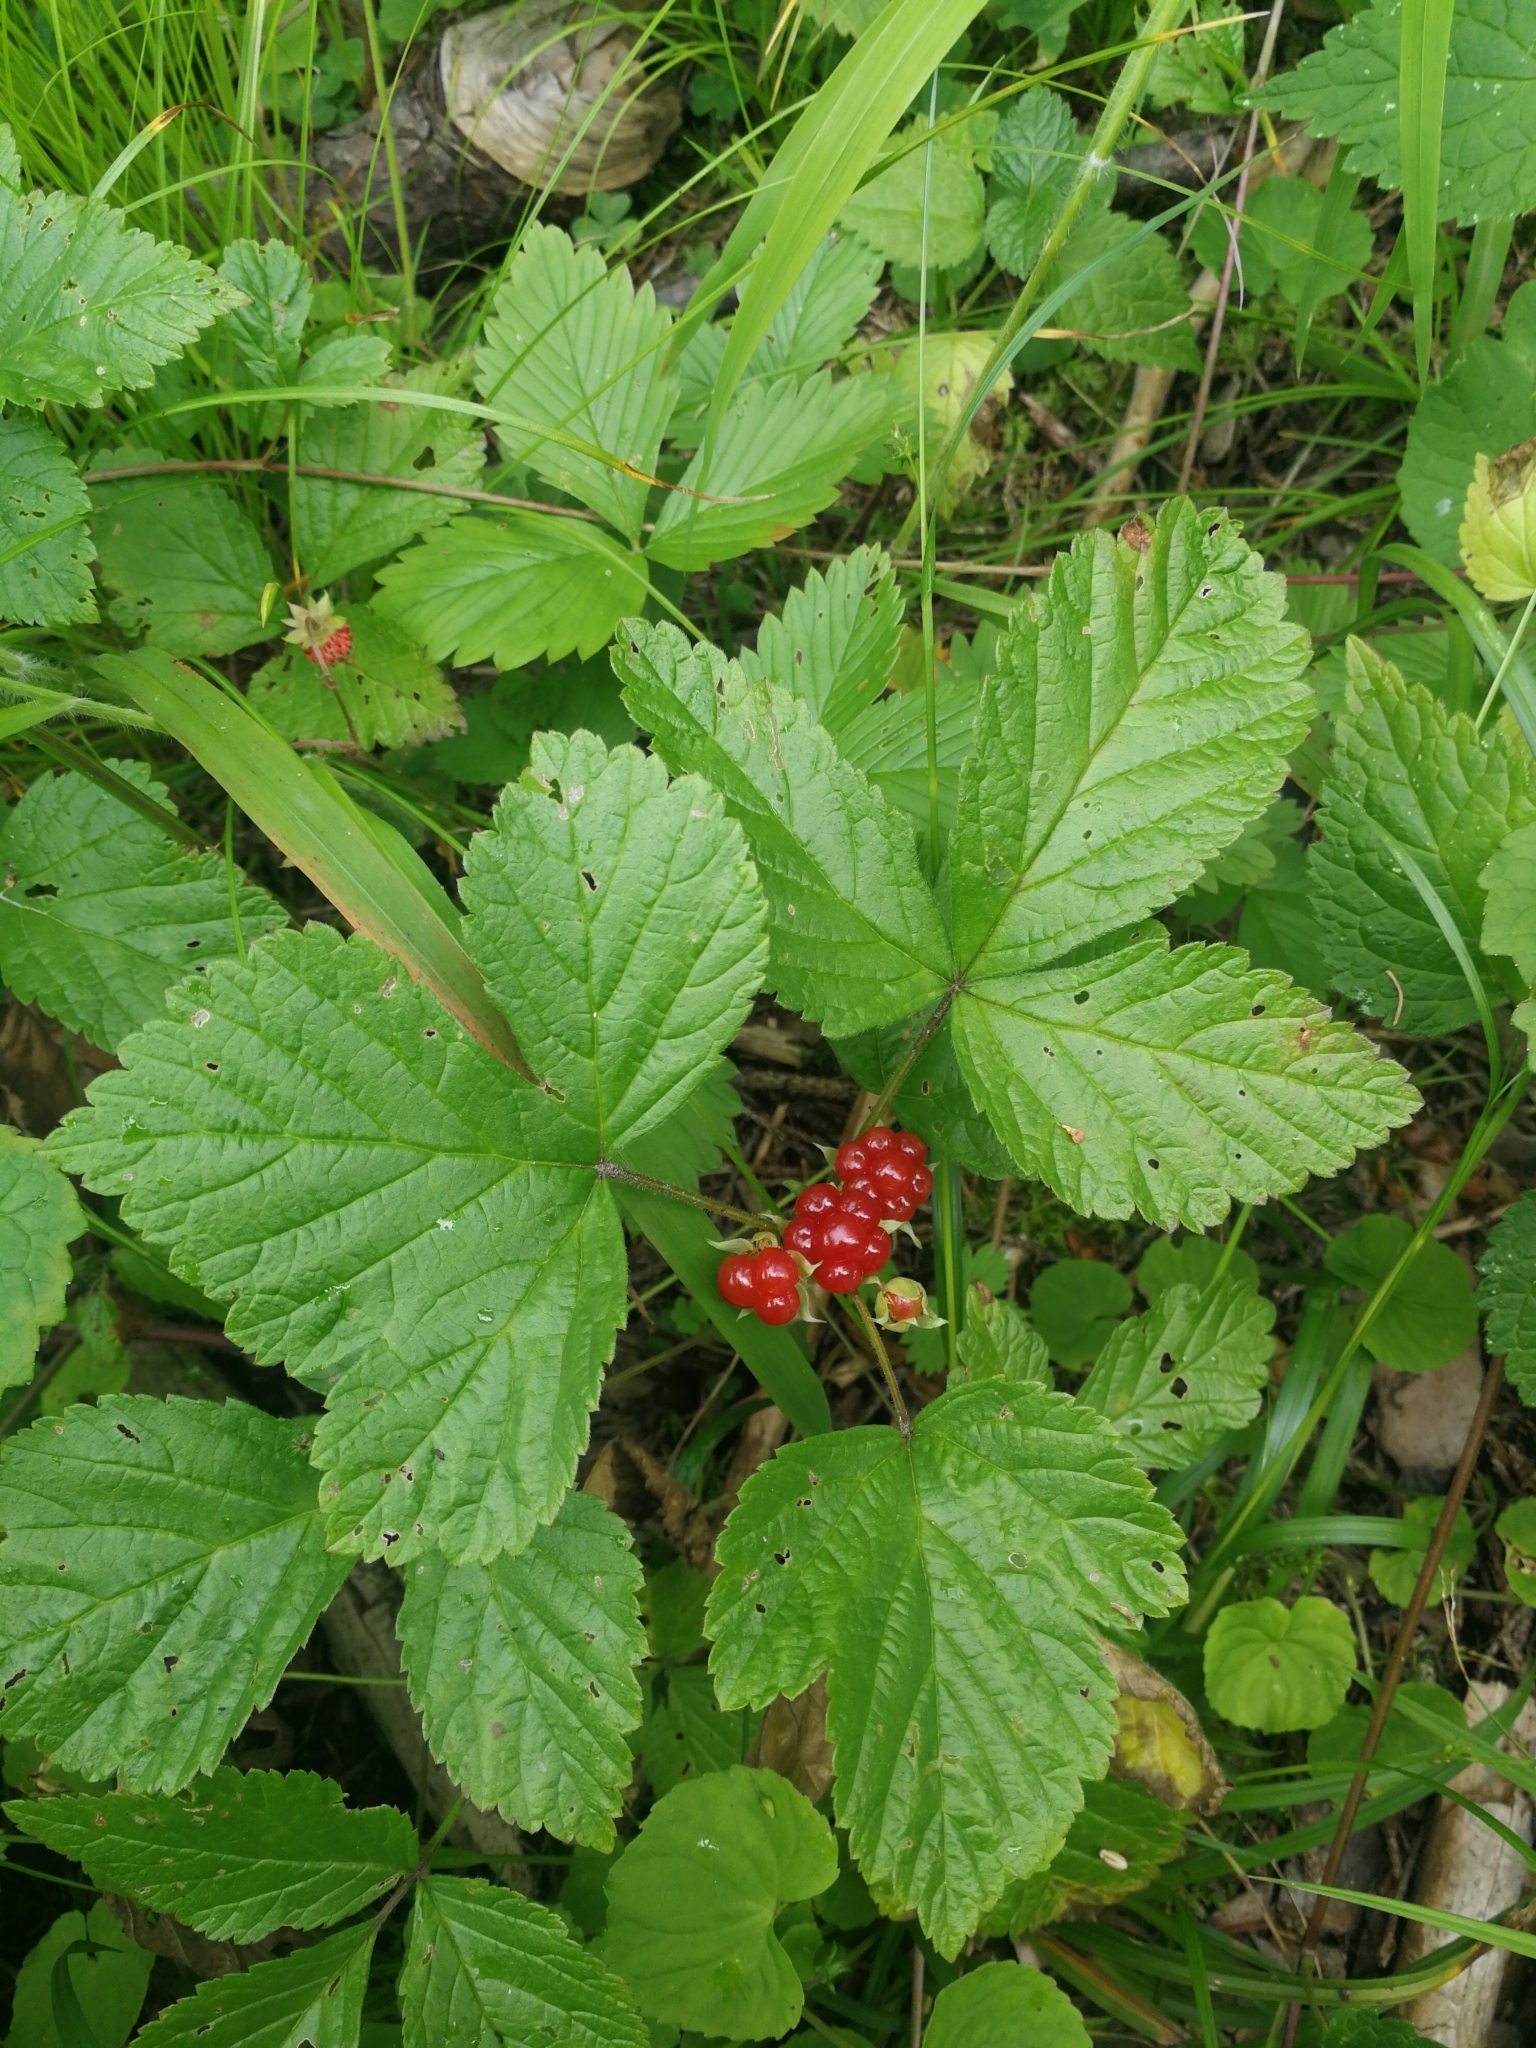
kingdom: Plantae
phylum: Tracheophyta
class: Magnoliopsida
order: Rosales
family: Rosaceae
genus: Rubus
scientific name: Rubus saxatilis
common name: Stone bramble
